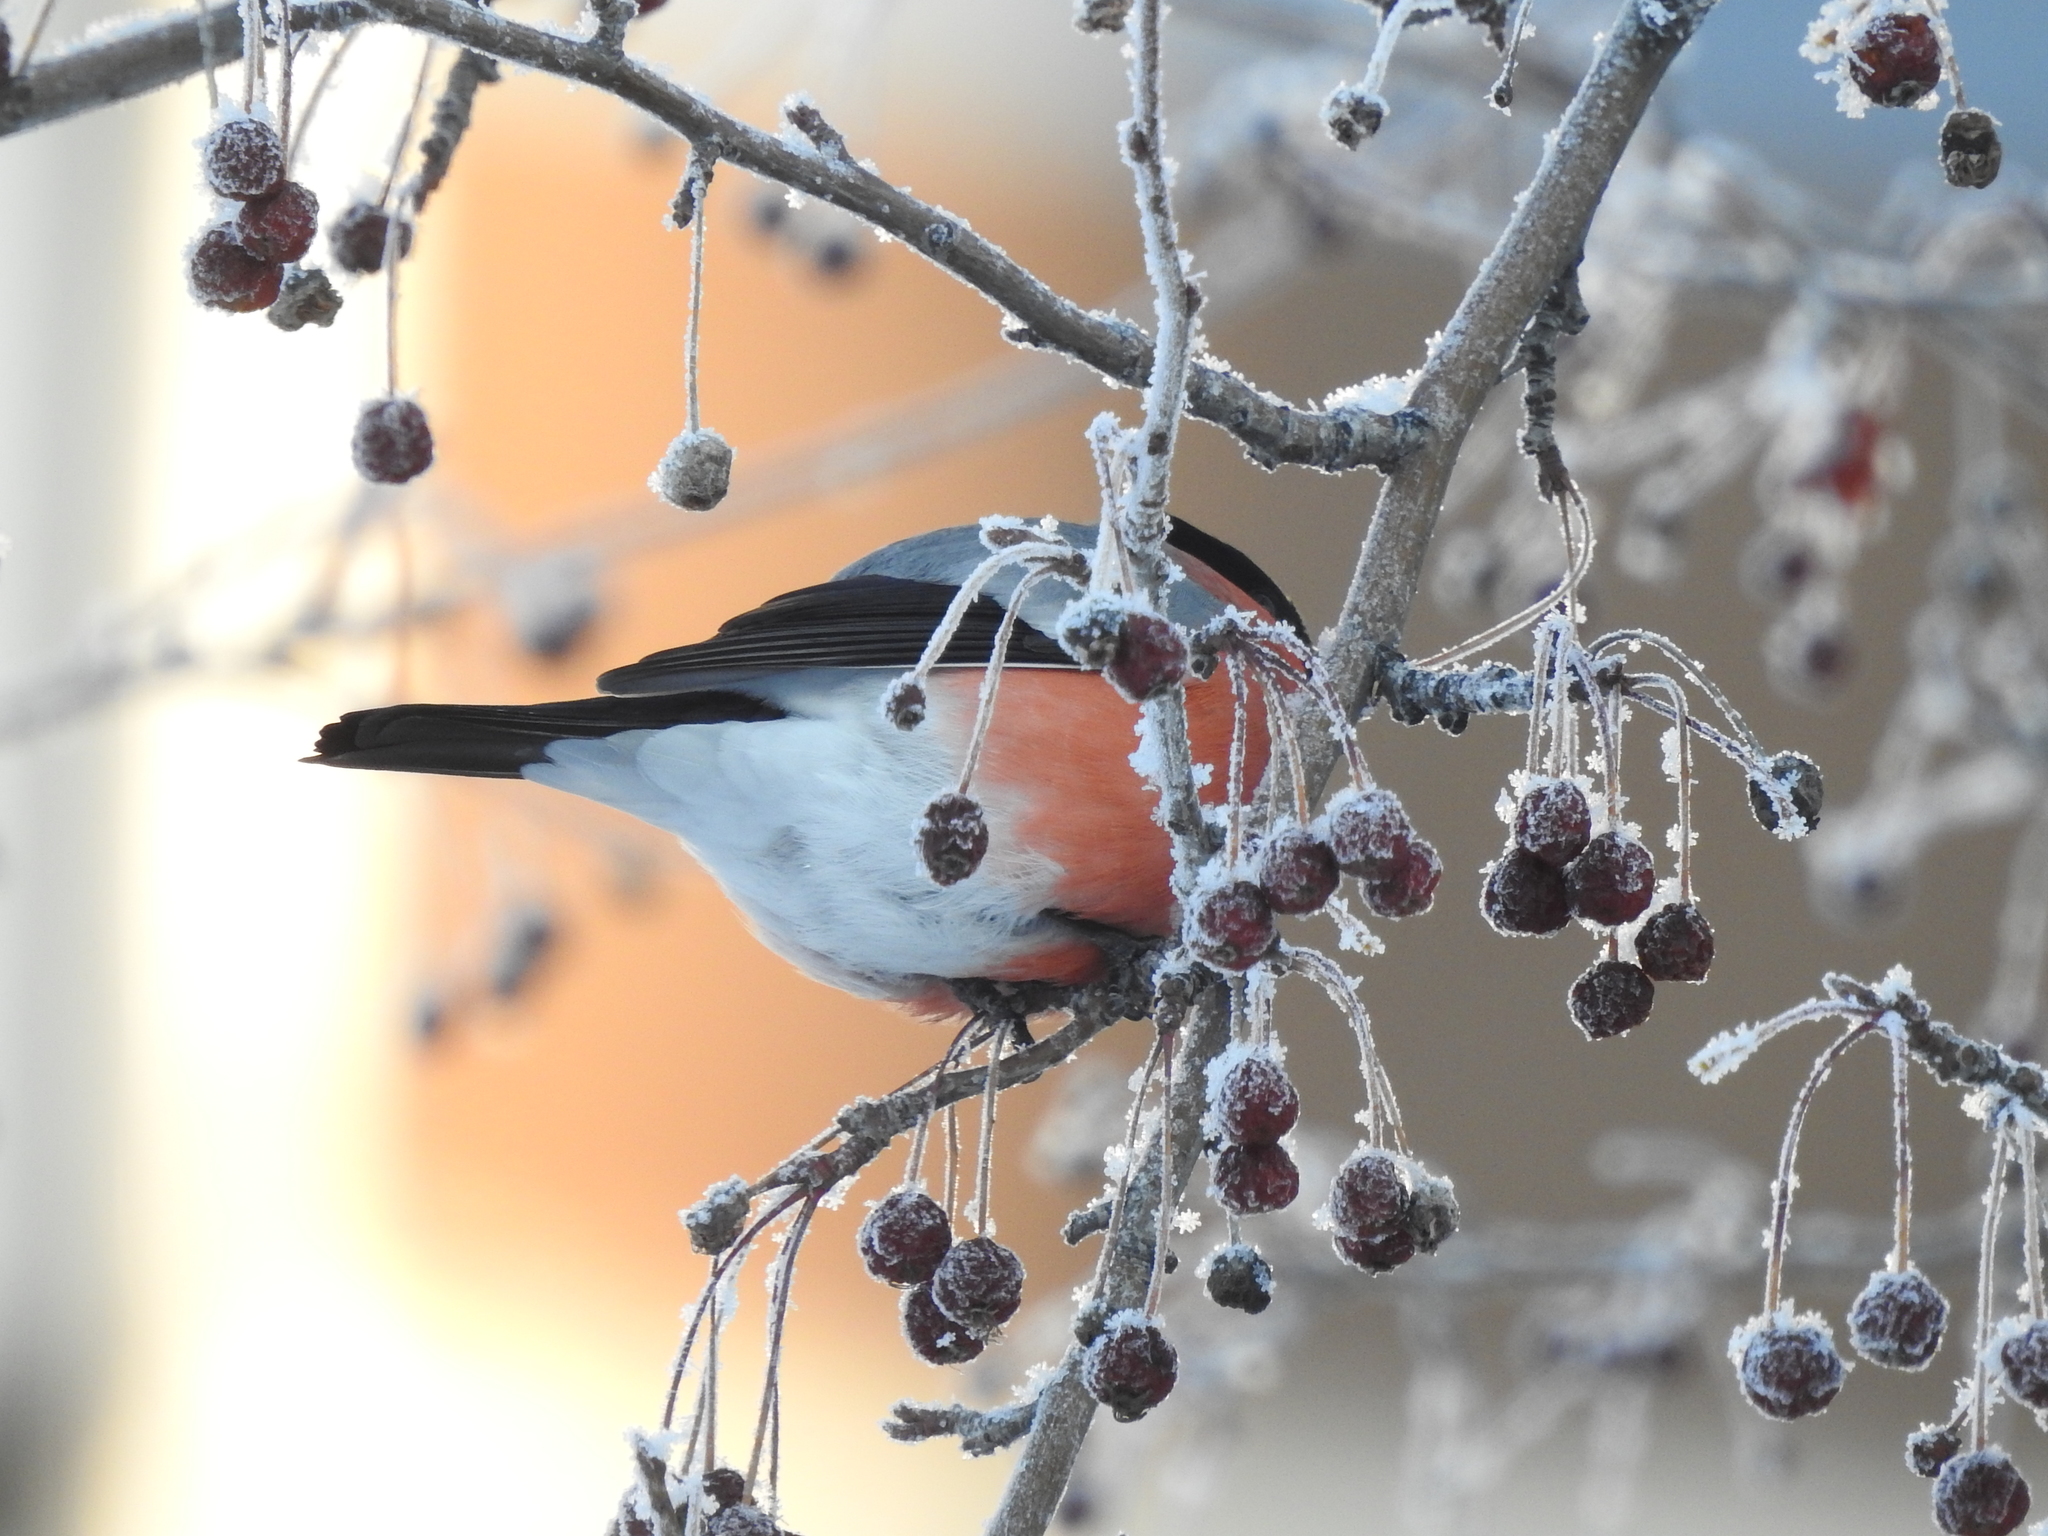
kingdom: Animalia
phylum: Chordata
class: Aves
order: Passeriformes
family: Fringillidae
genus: Pyrrhula
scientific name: Pyrrhula pyrrhula
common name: Eurasian bullfinch
